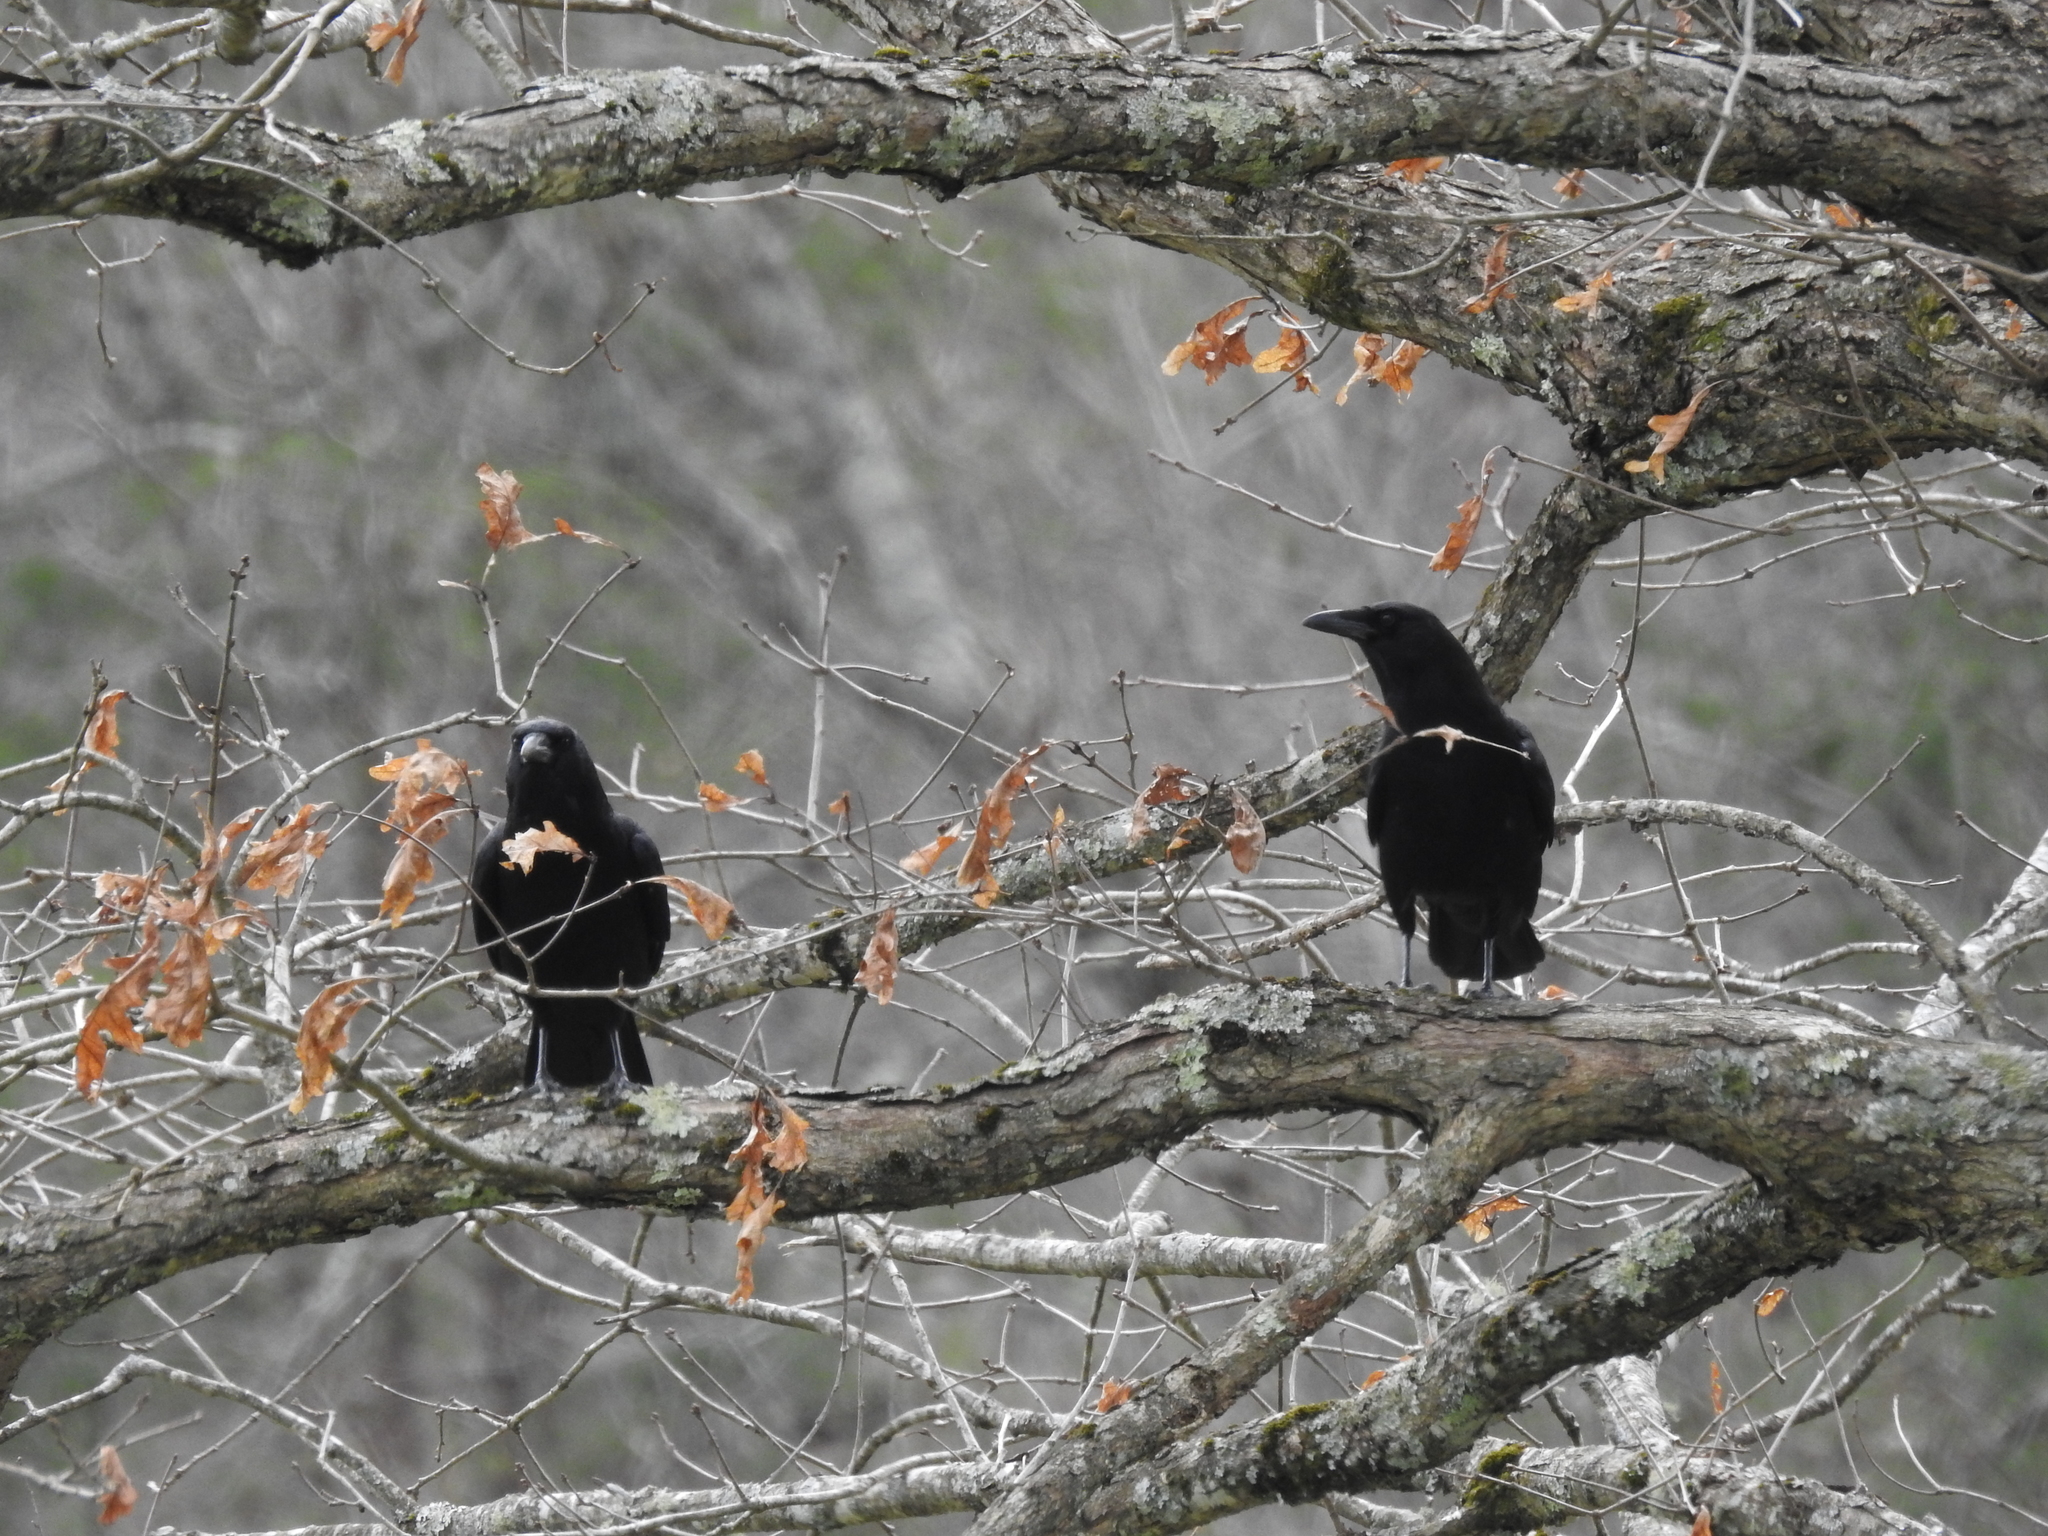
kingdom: Animalia
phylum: Chordata
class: Aves
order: Passeriformes
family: Corvidae
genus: Corvus
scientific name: Corvus brachyrhynchos
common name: American crow
